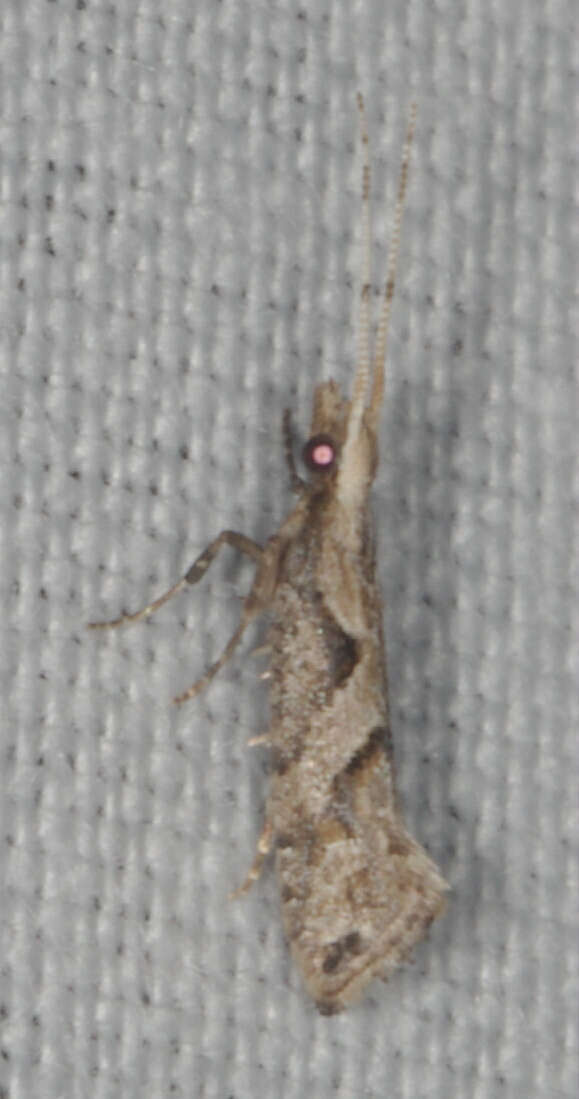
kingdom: Animalia
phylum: Arthropoda
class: Insecta
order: Lepidoptera
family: Plutellidae
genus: Leuroperna
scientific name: Leuroperna sera
